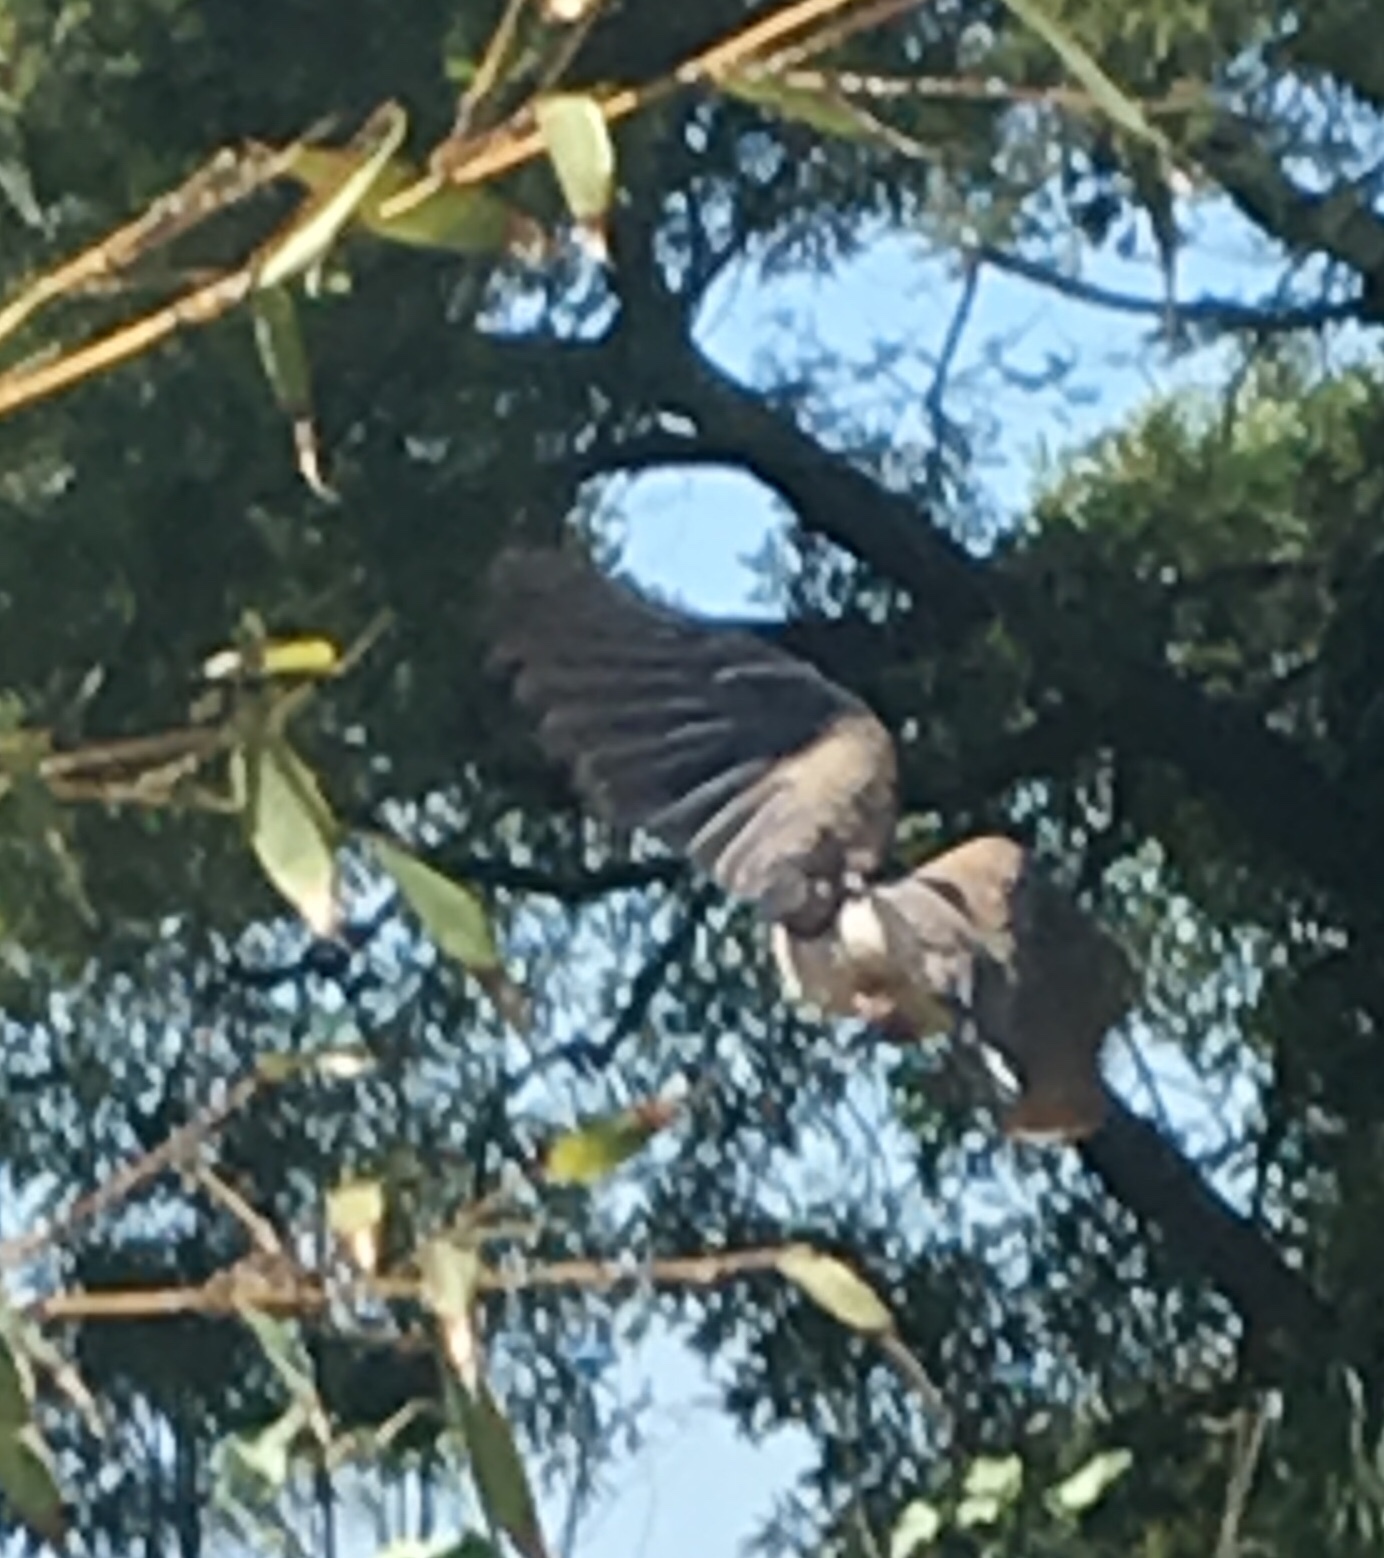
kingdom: Animalia
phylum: Chordata
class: Aves
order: Columbiformes
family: Columbidae
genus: Zenaida
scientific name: Zenaida macroura
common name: Mourning dove
